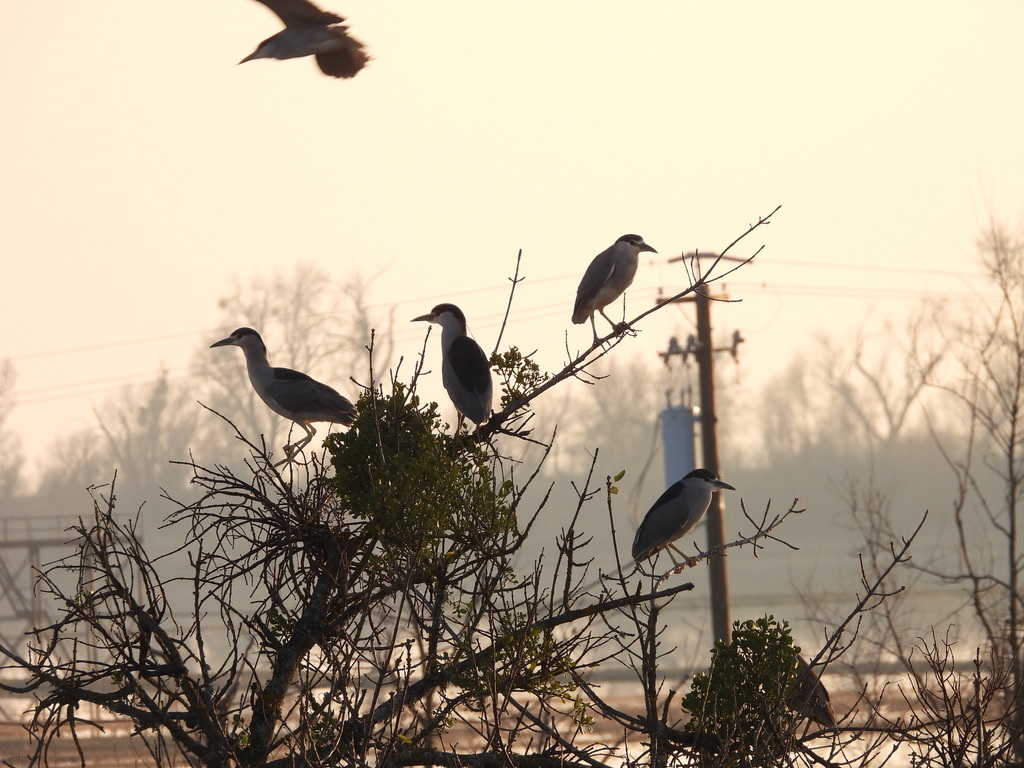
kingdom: Animalia
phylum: Chordata
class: Aves
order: Pelecaniformes
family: Ardeidae
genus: Nycticorax
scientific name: Nycticorax nycticorax
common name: Black-crowned night heron
